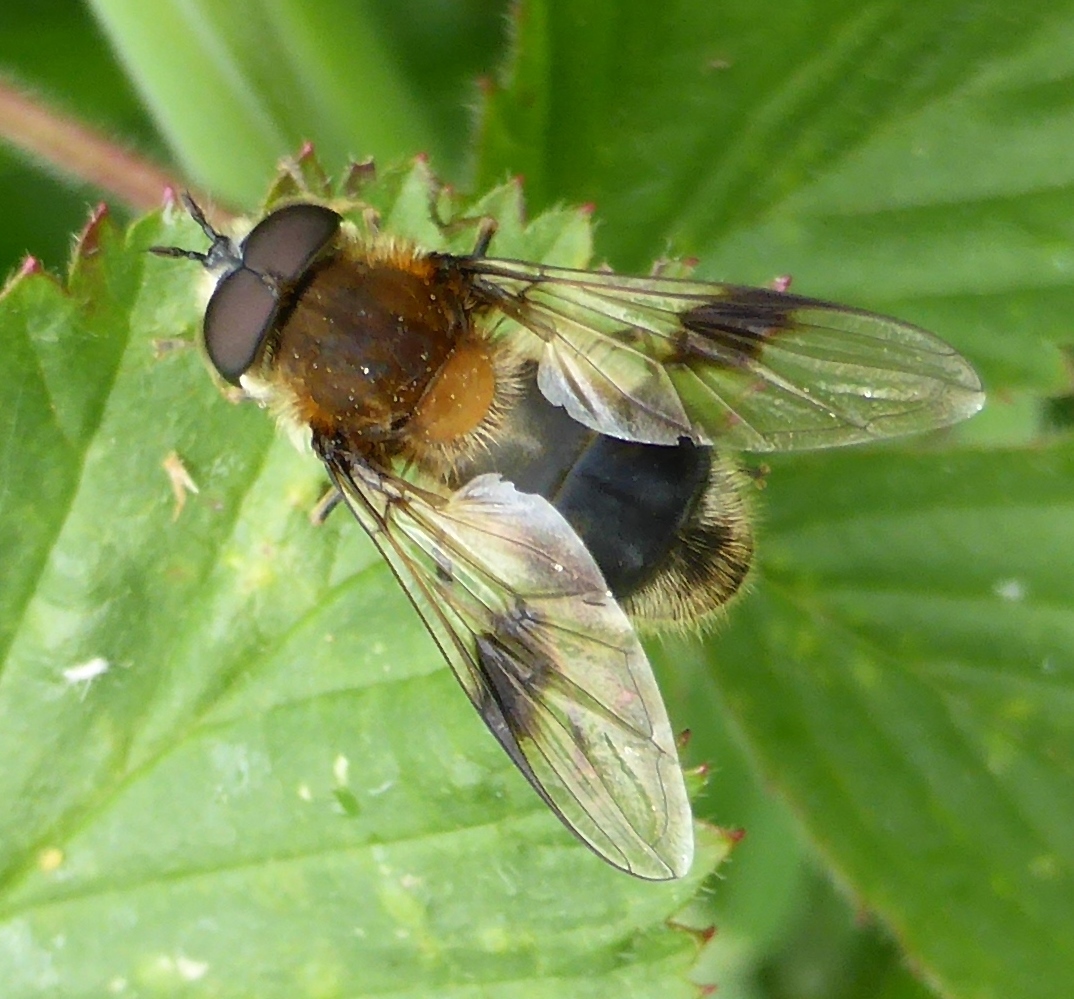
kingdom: Animalia
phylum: Arthropoda
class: Insecta
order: Diptera
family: Syrphidae
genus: Leucozona
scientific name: Leucozona lucorum
